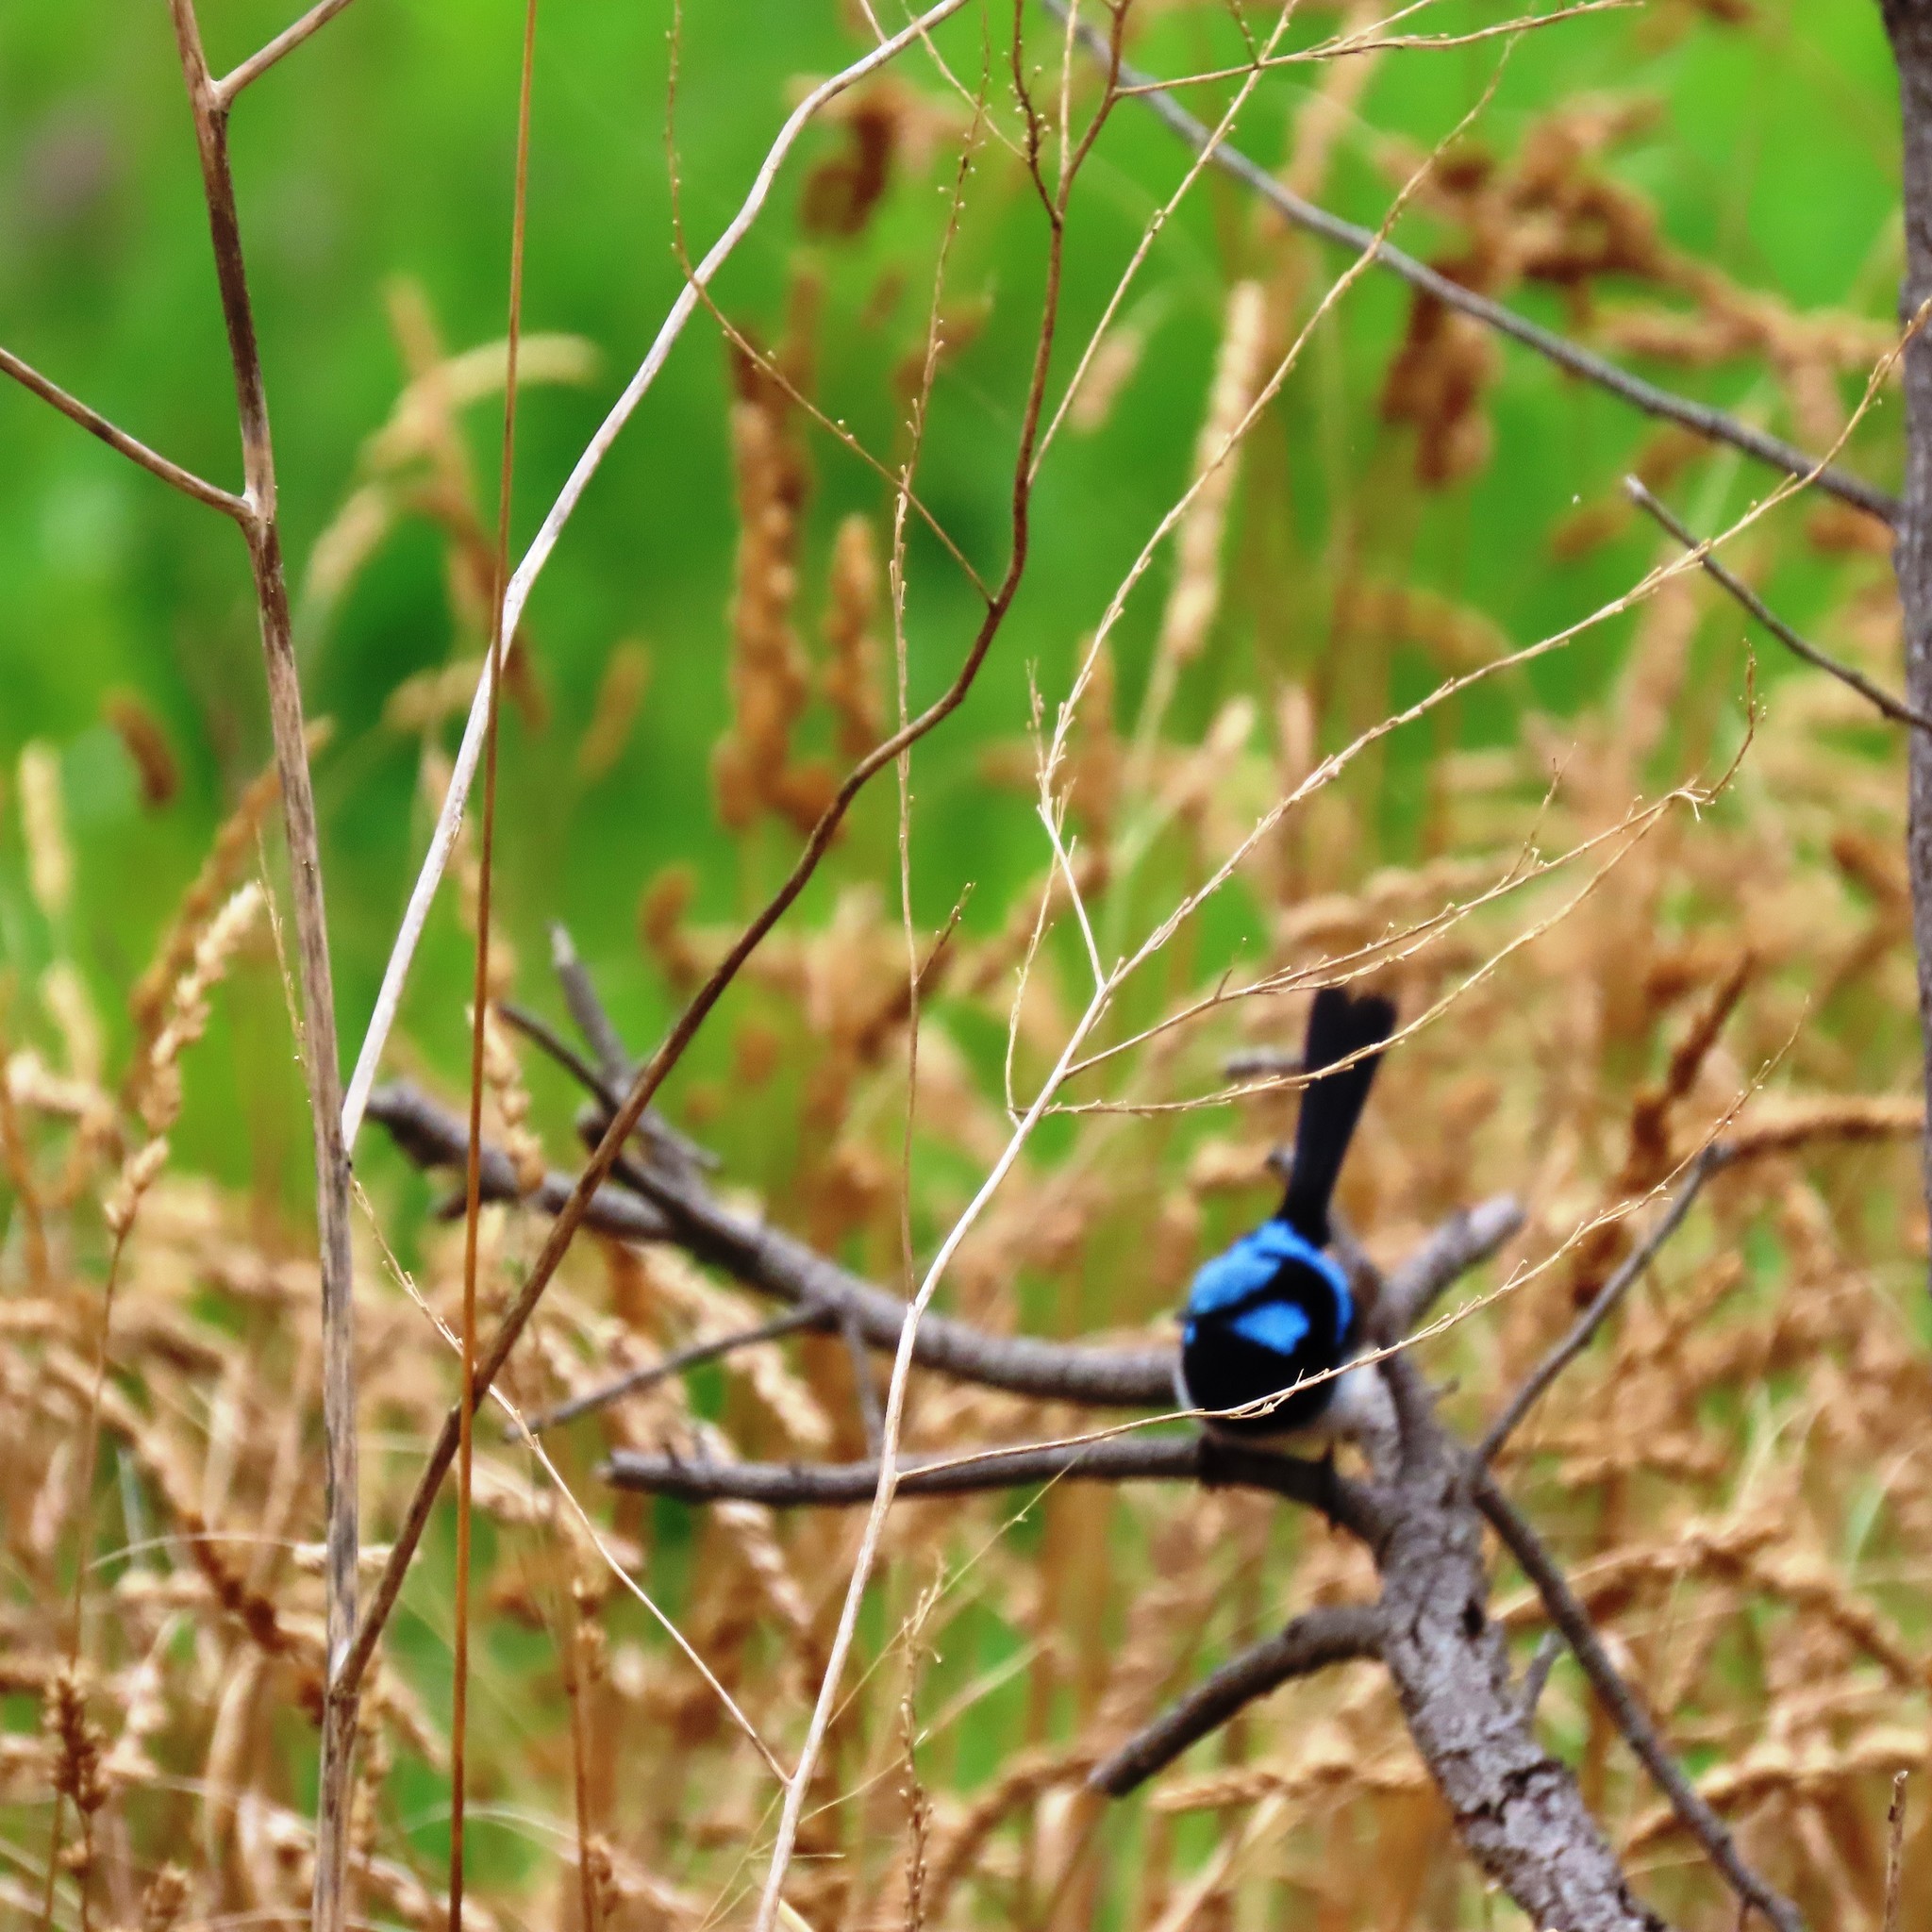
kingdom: Animalia
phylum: Chordata
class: Aves
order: Passeriformes
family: Maluridae
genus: Malurus
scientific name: Malurus cyaneus
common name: Superb fairywren
